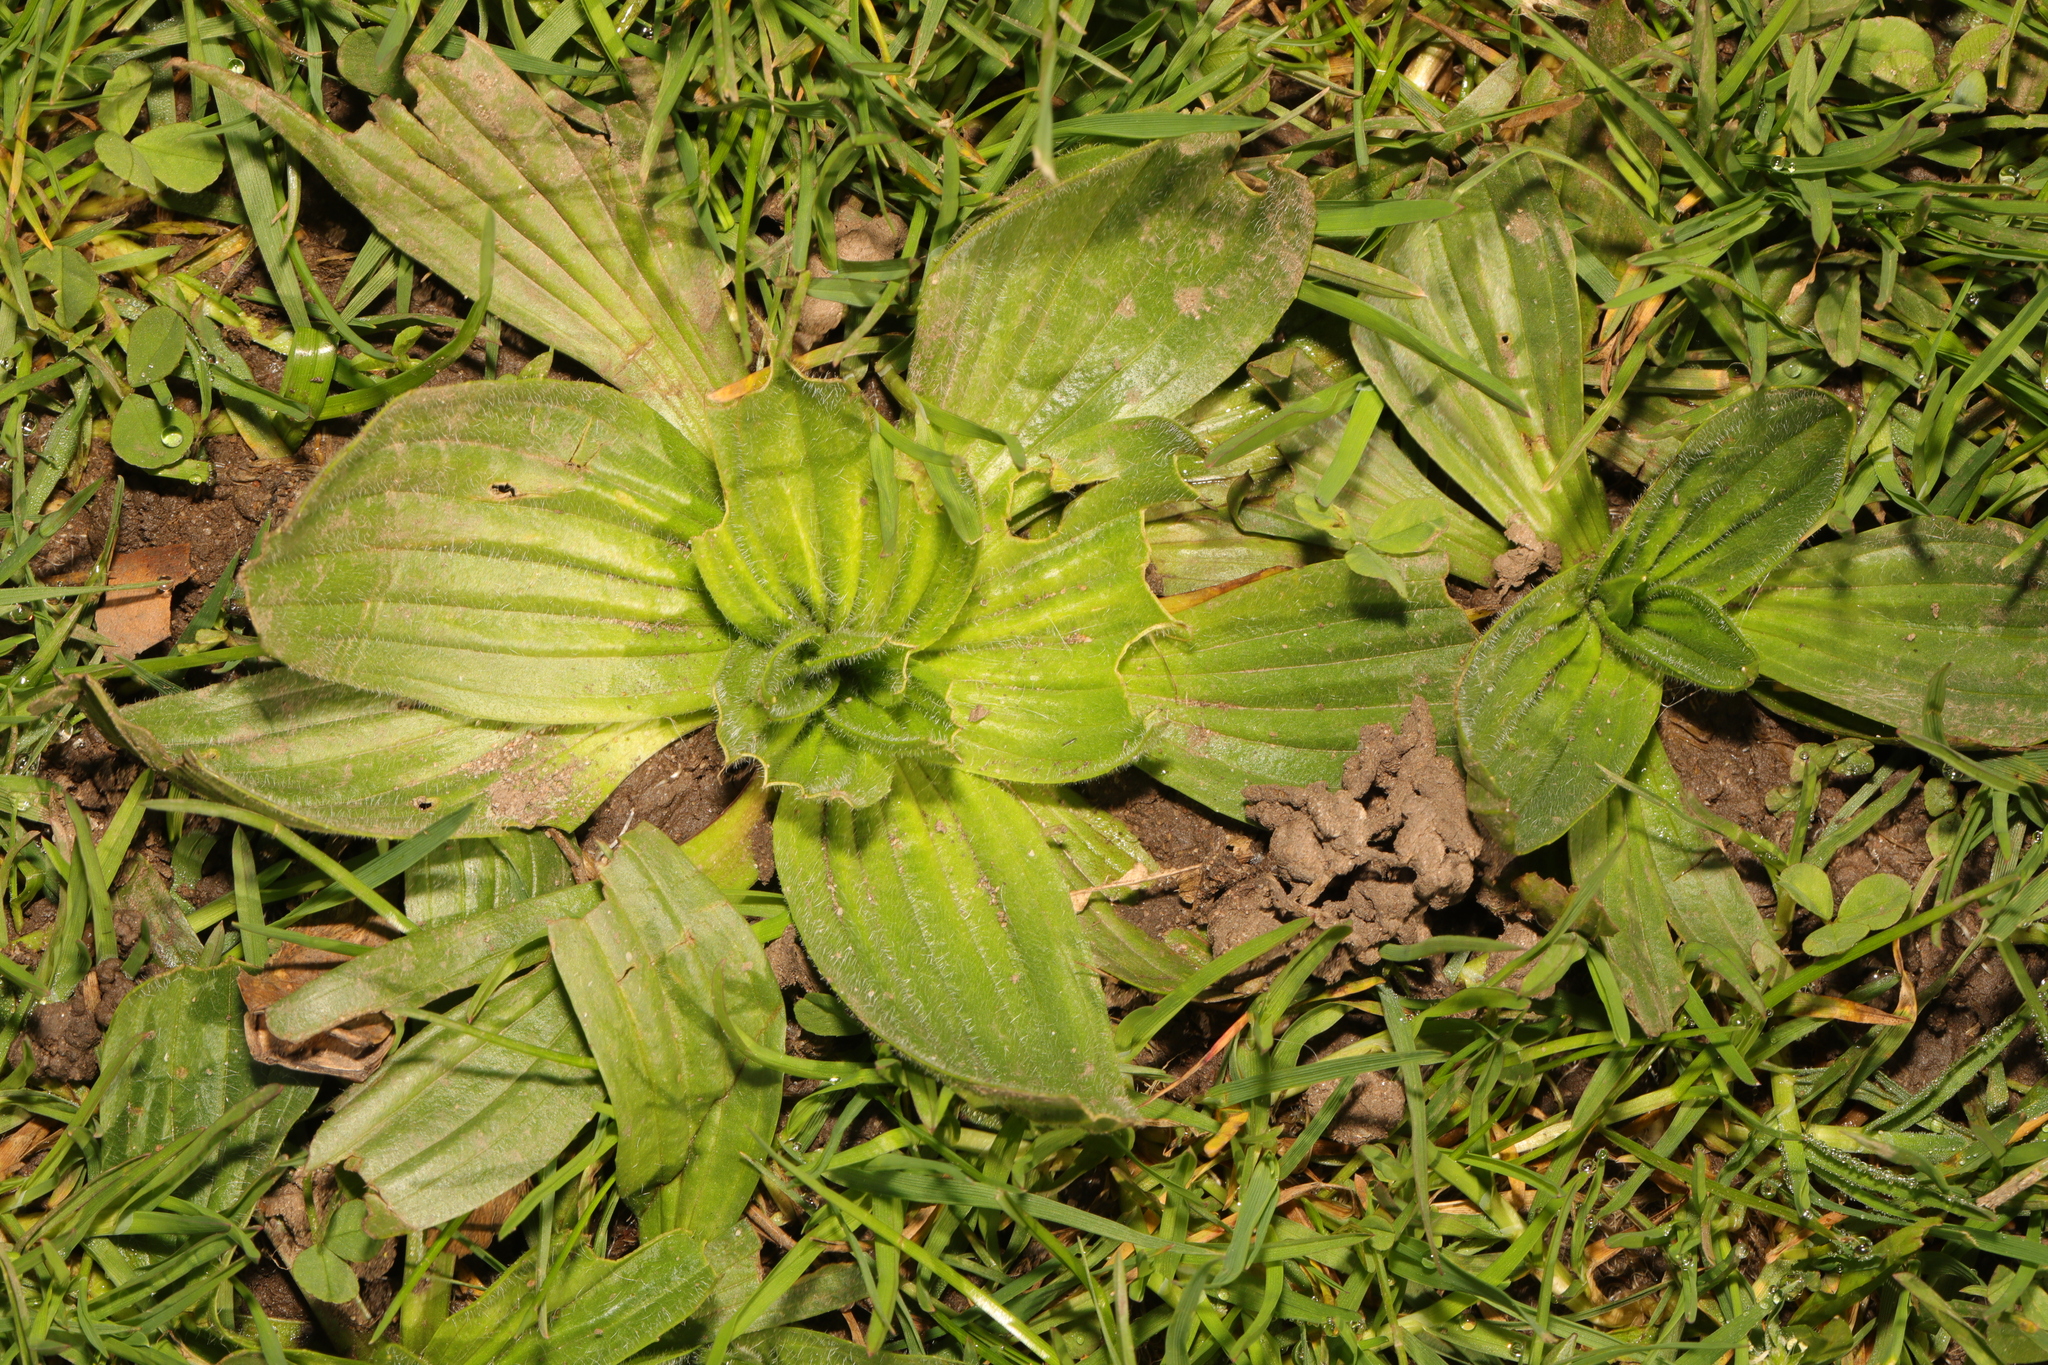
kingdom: Plantae
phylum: Tracheophyta
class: Magnoliopsida
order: Lamiales
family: Plantaginaceae
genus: Plantago
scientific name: Plantago lanceolata
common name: Ribwort plantain
